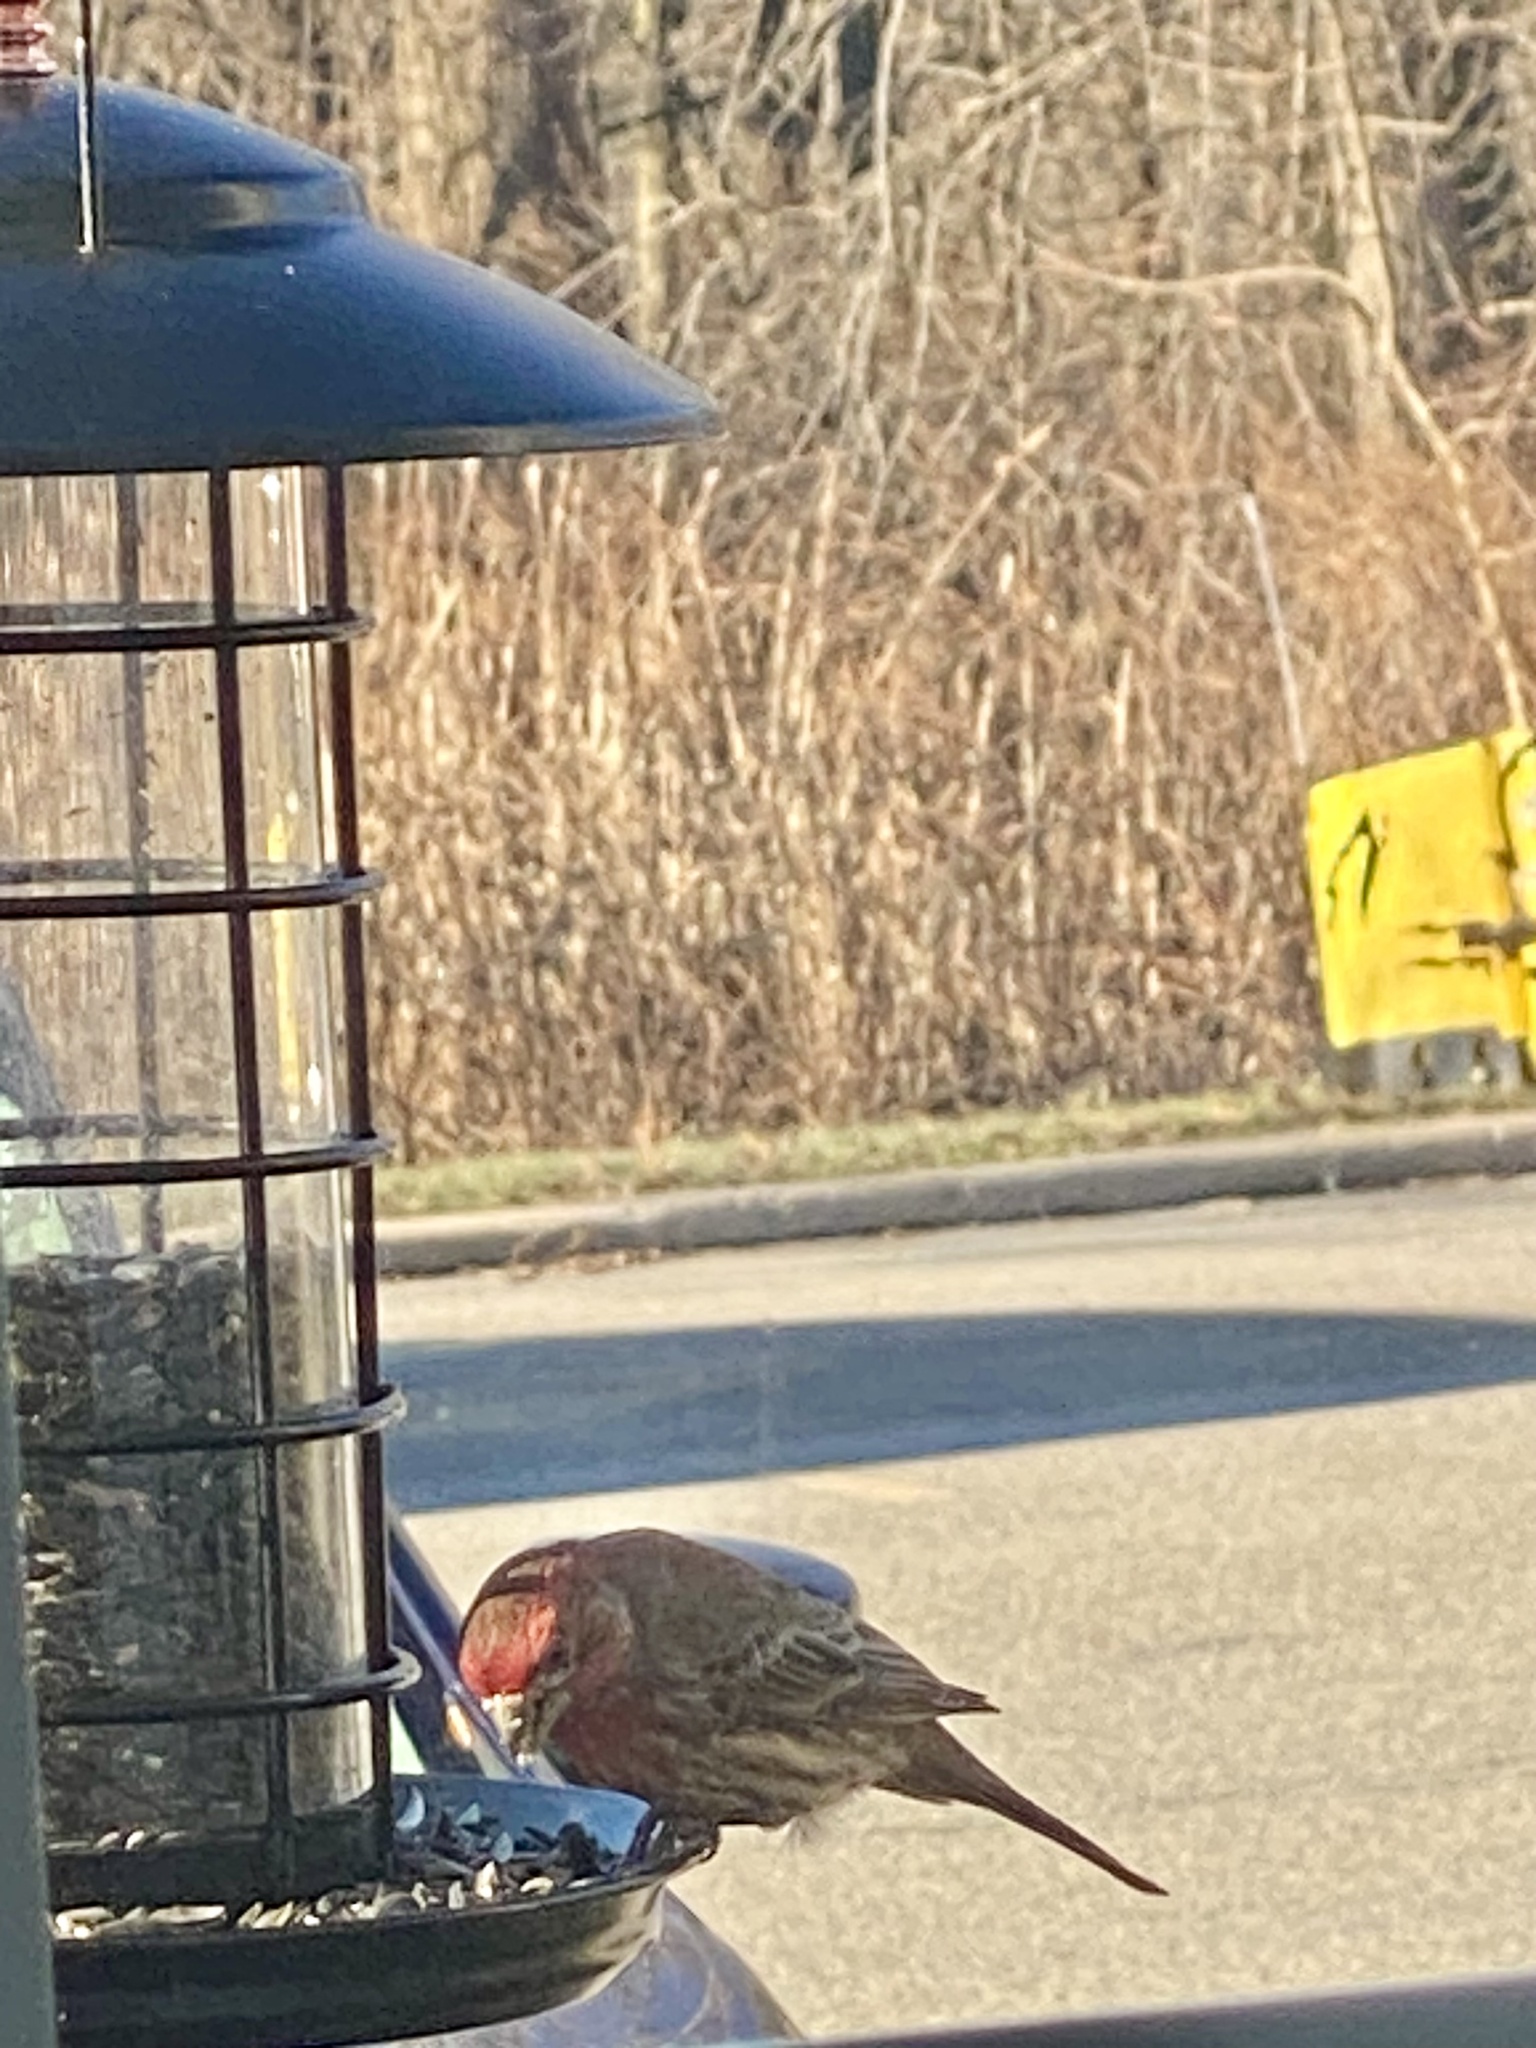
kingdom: Animalia
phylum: Chordata
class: Aves
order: Passeriformes
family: Fringillidae
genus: Haemorhous
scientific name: Haemorhous mexicanus
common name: House finch
